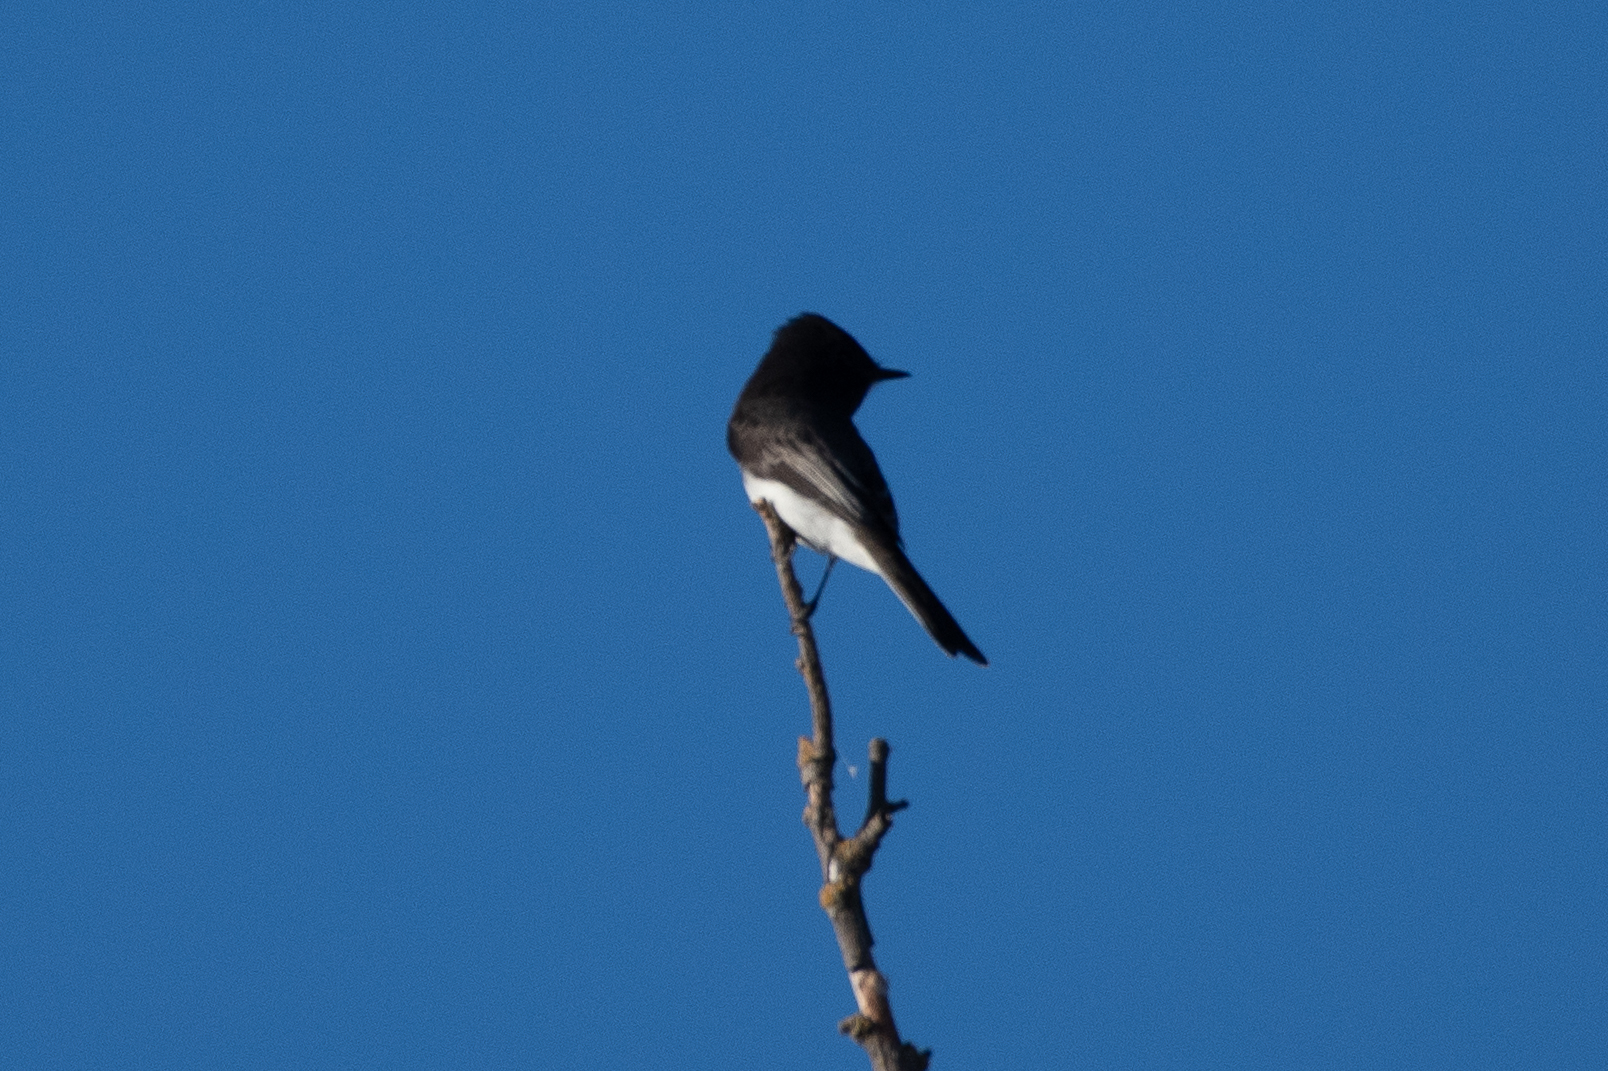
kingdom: Animalia
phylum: Chordata
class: Aves
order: Passeriformes
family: Tyrannidae
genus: Sayornis
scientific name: Sayornis nigricans
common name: Black phoebe
